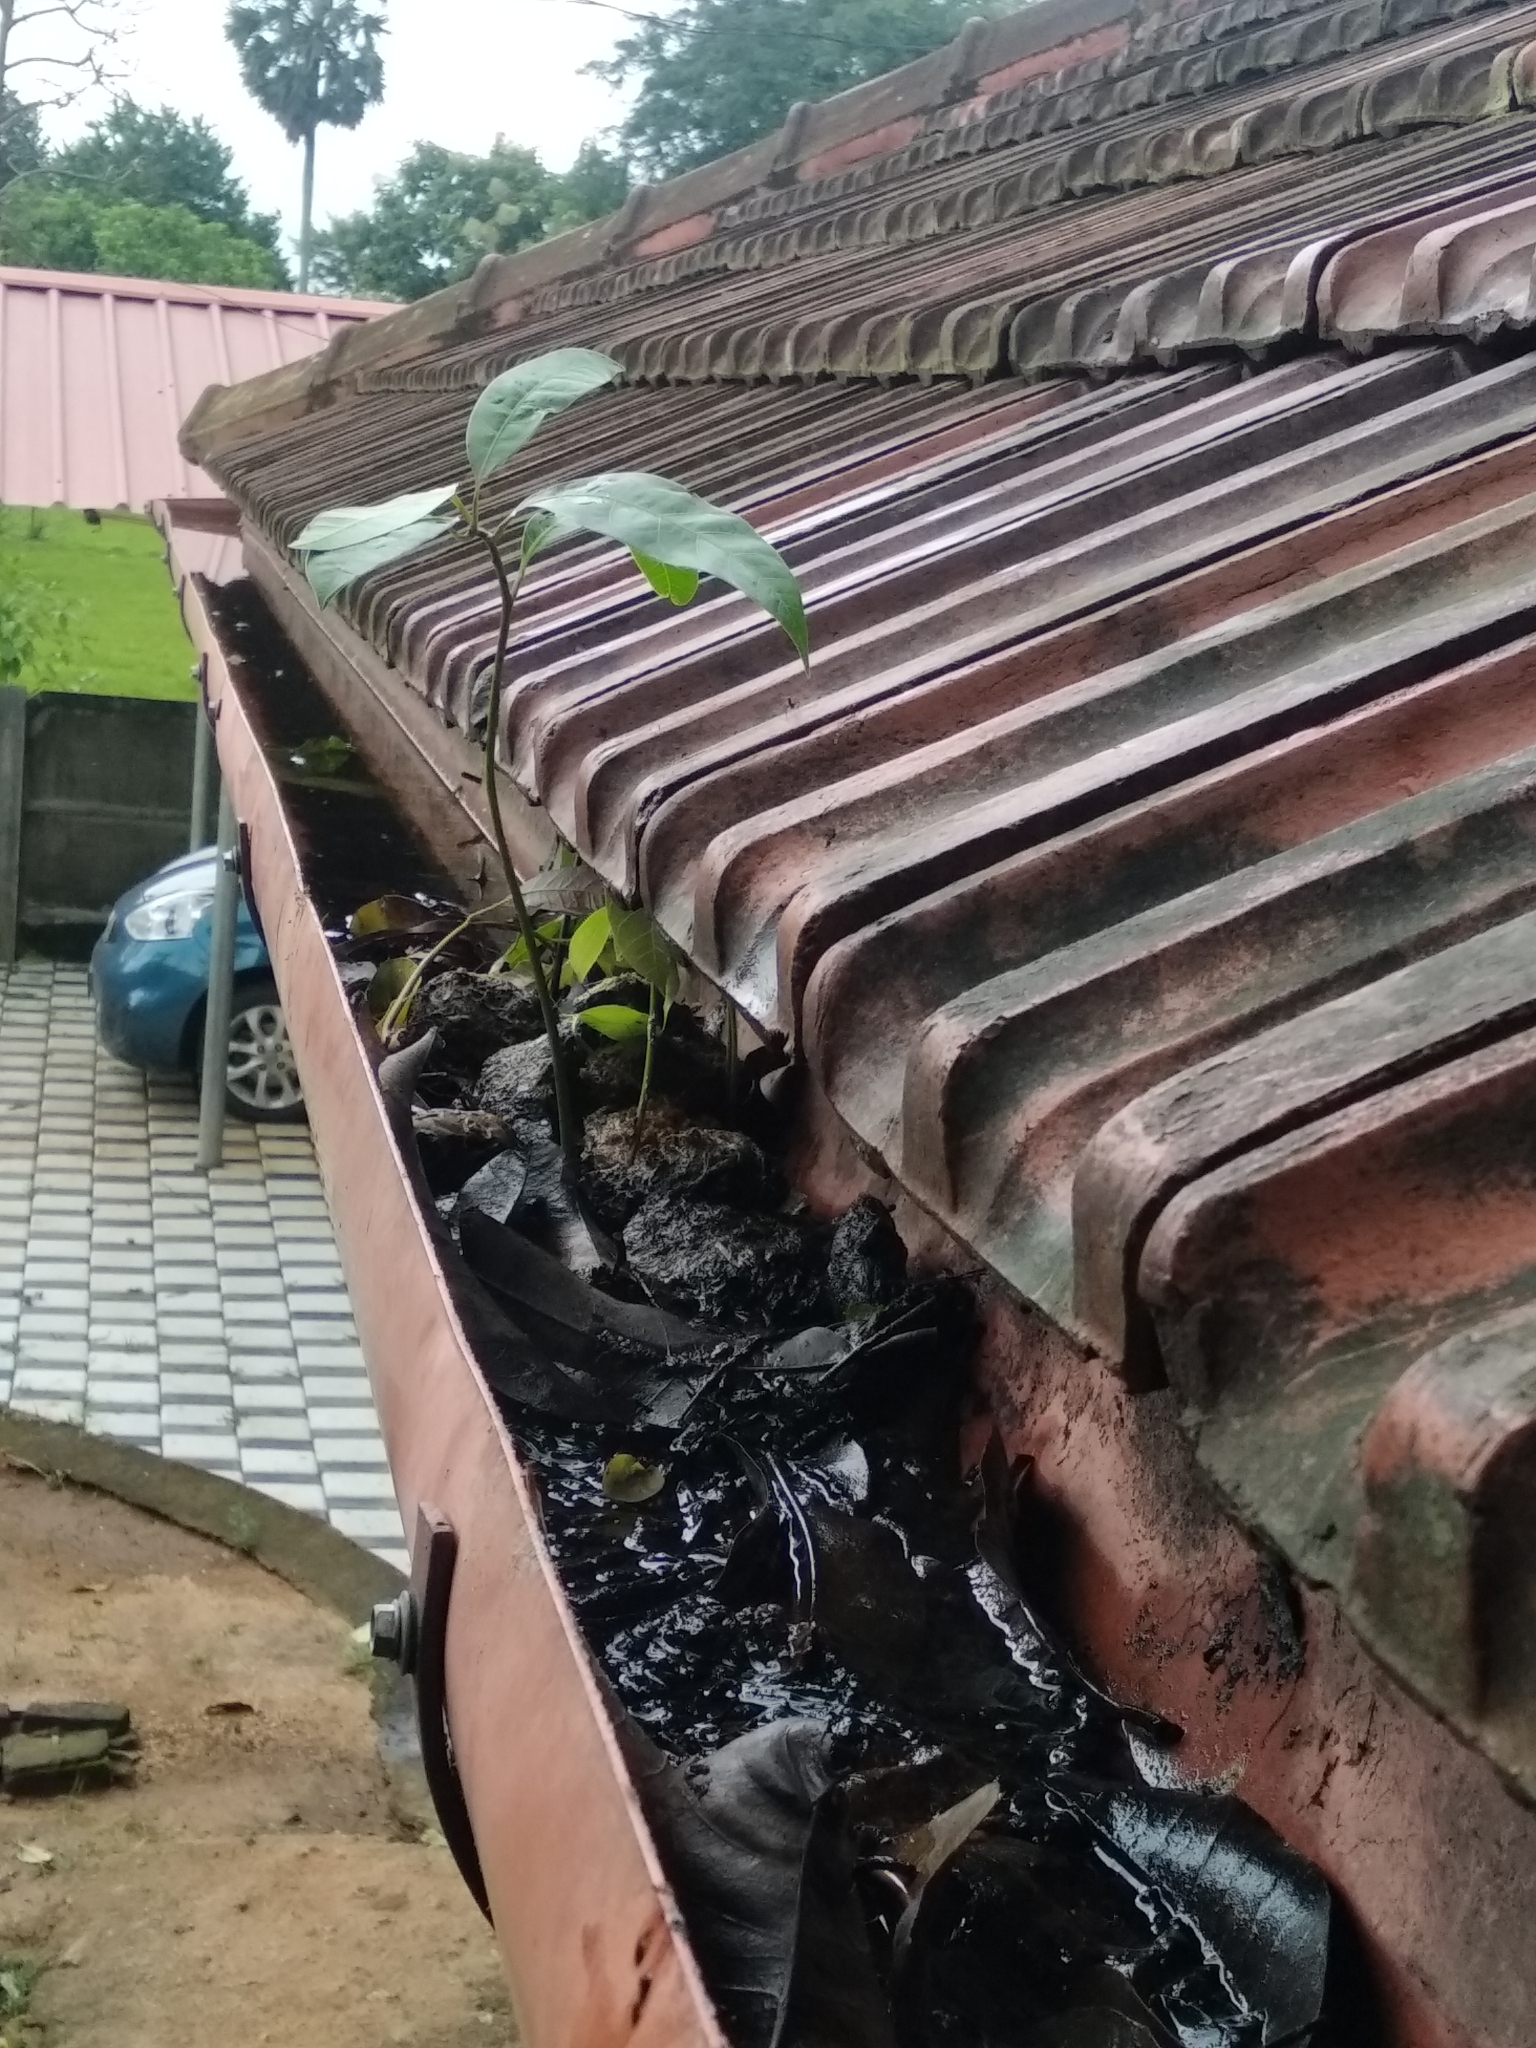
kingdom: Plantae
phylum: Tracheophyta
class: Magnoliopsida
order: Sapindales
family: Anacardiaceae
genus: Mangifera
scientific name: Mangifera indica
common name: Mango
